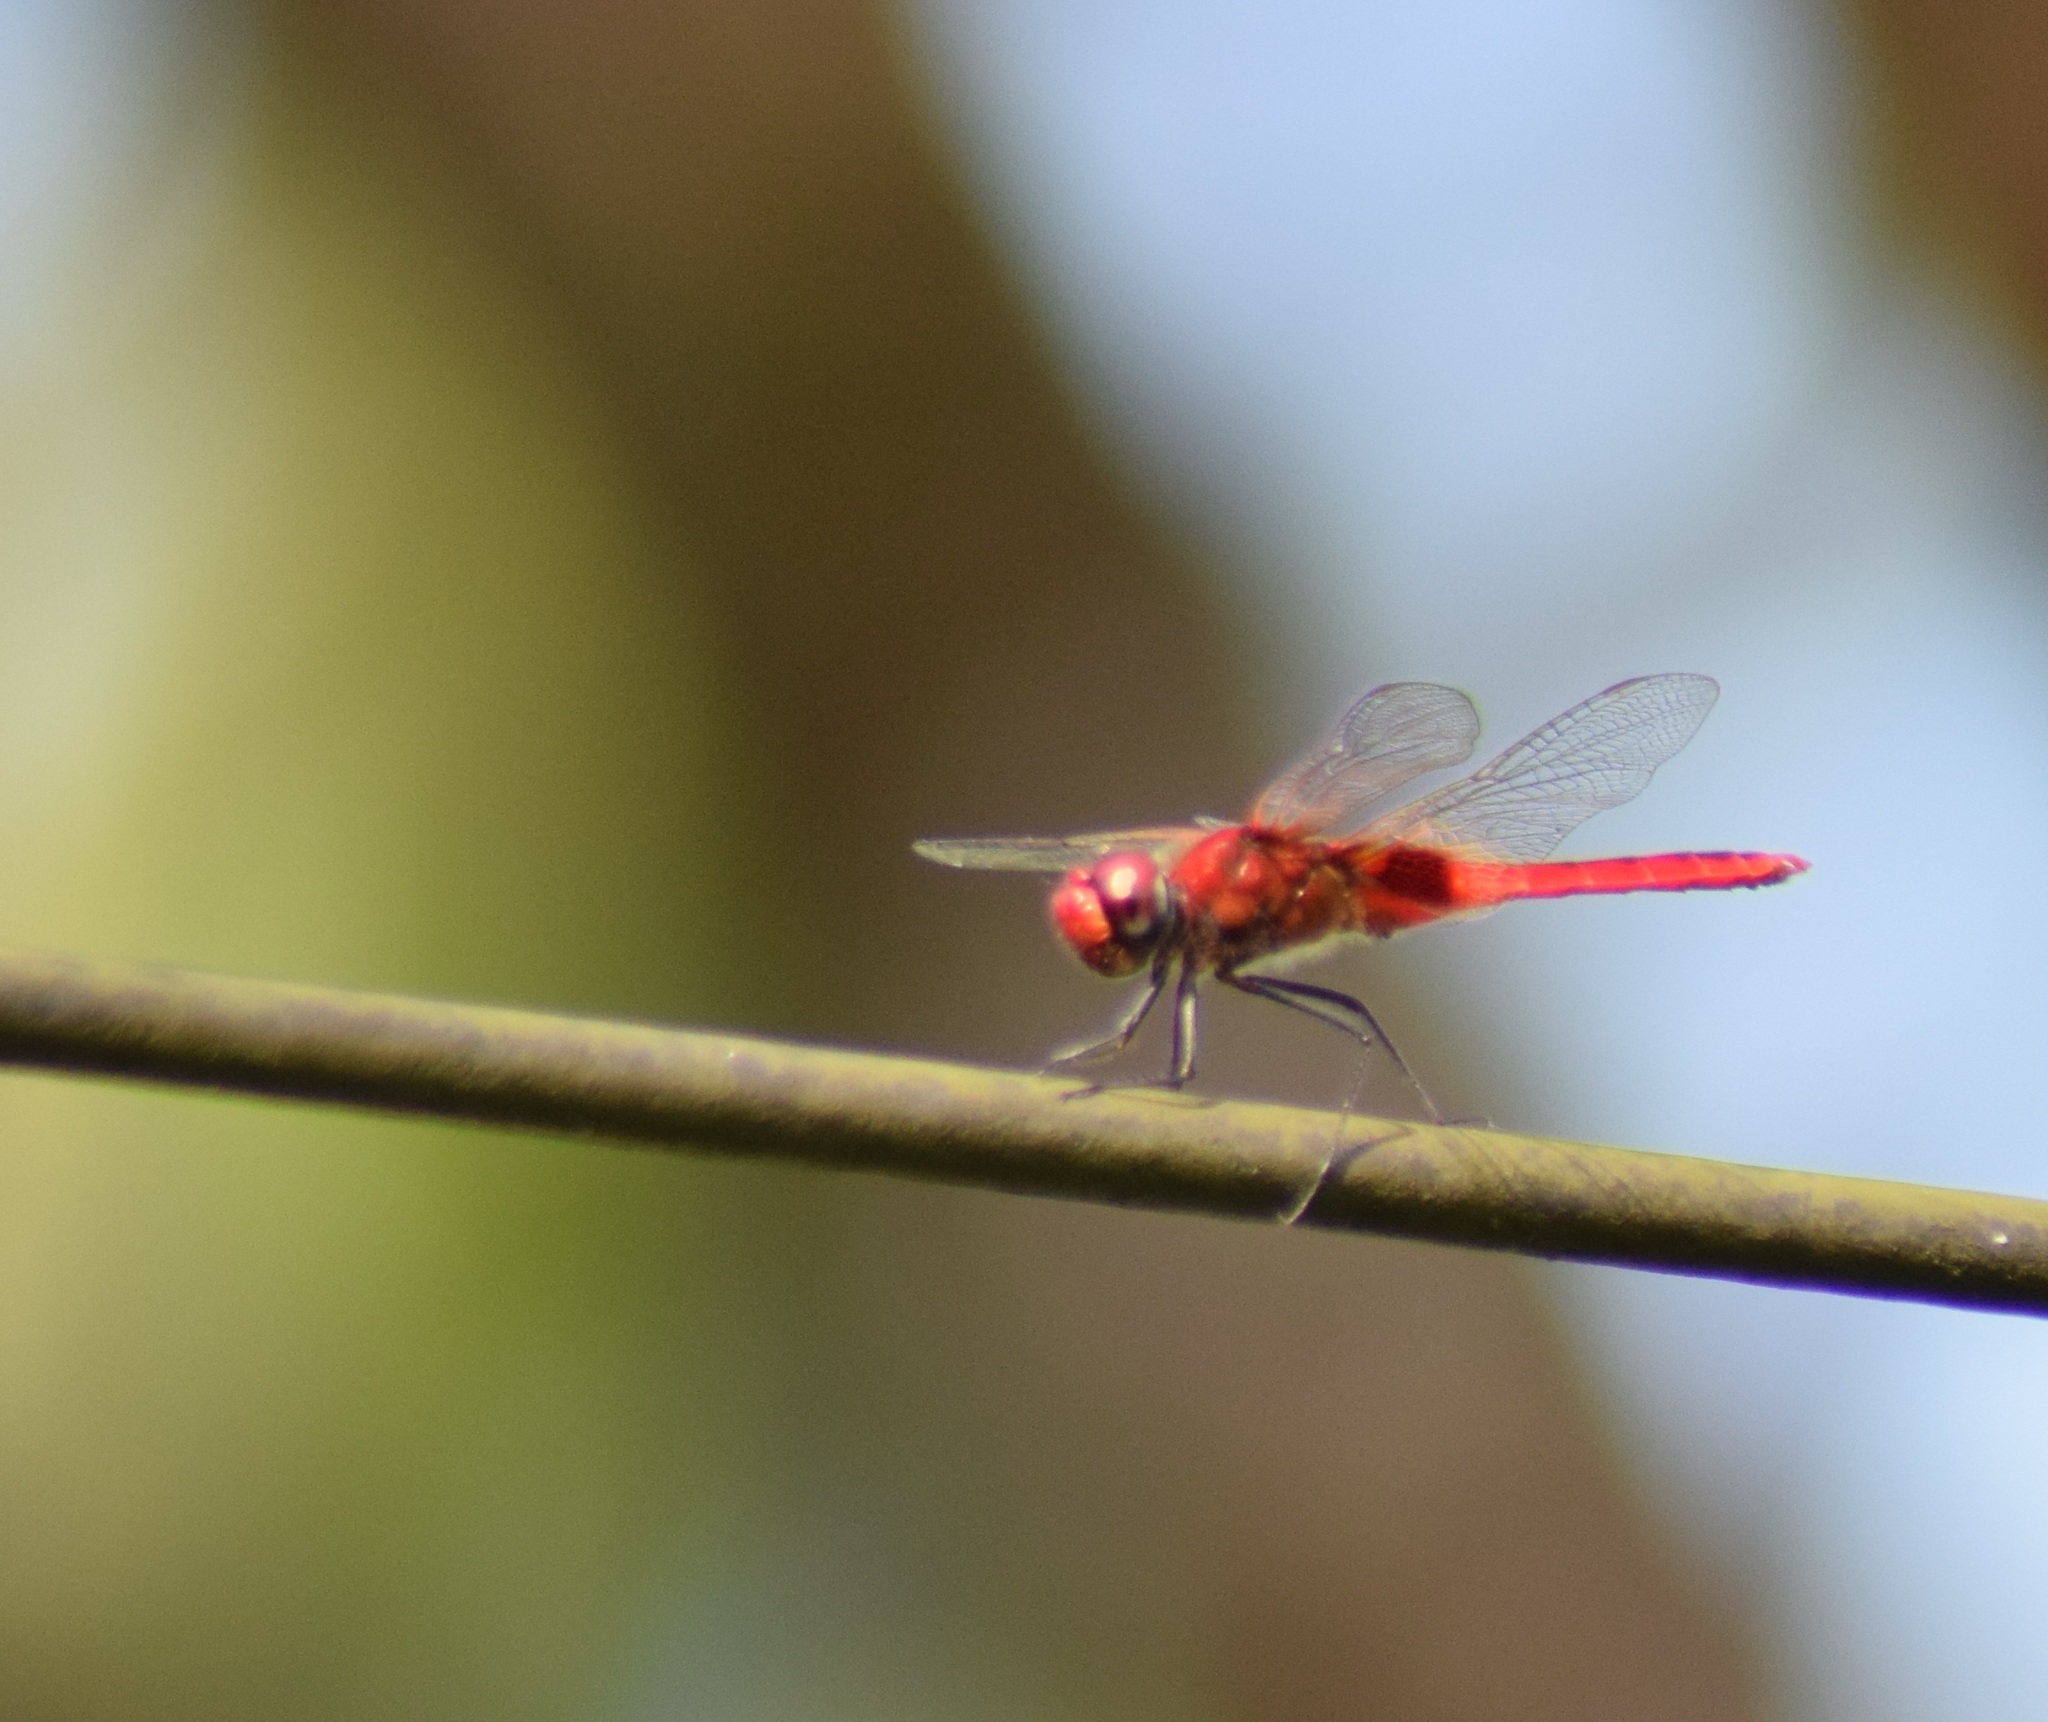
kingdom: Animalia
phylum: Arthropoda
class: Insecta
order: Odonata
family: Libellulidae
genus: Urothemis
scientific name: Urothemis signata
